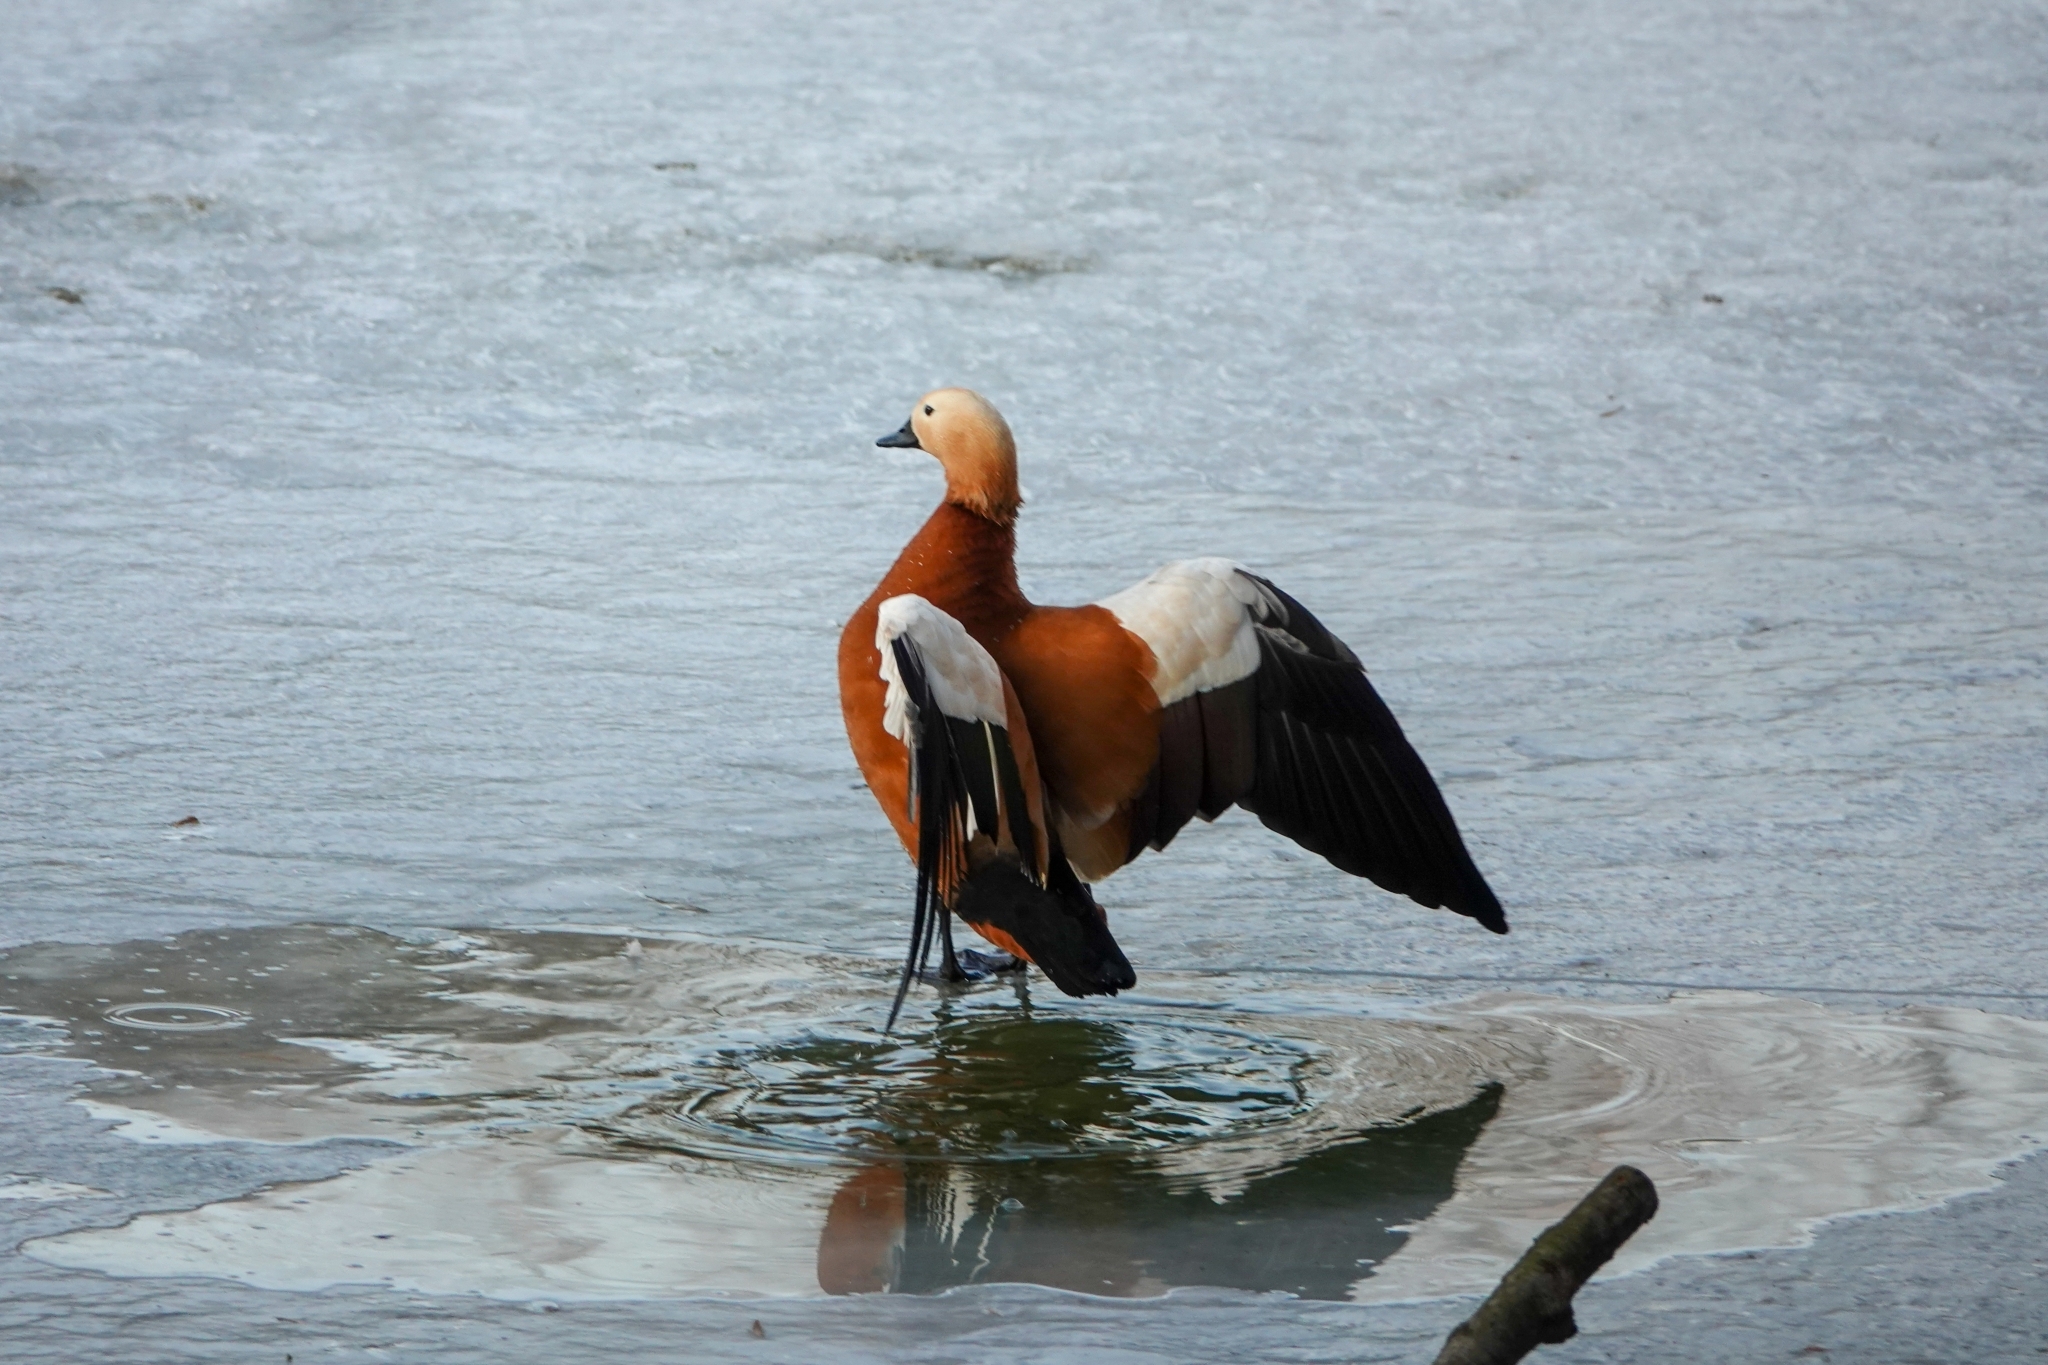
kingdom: Animalia
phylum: Chordata
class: Aves
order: Anseriformes
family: Anatidae
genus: Tadorna
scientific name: Tadorna ferruginea
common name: Ruddy shelduck
